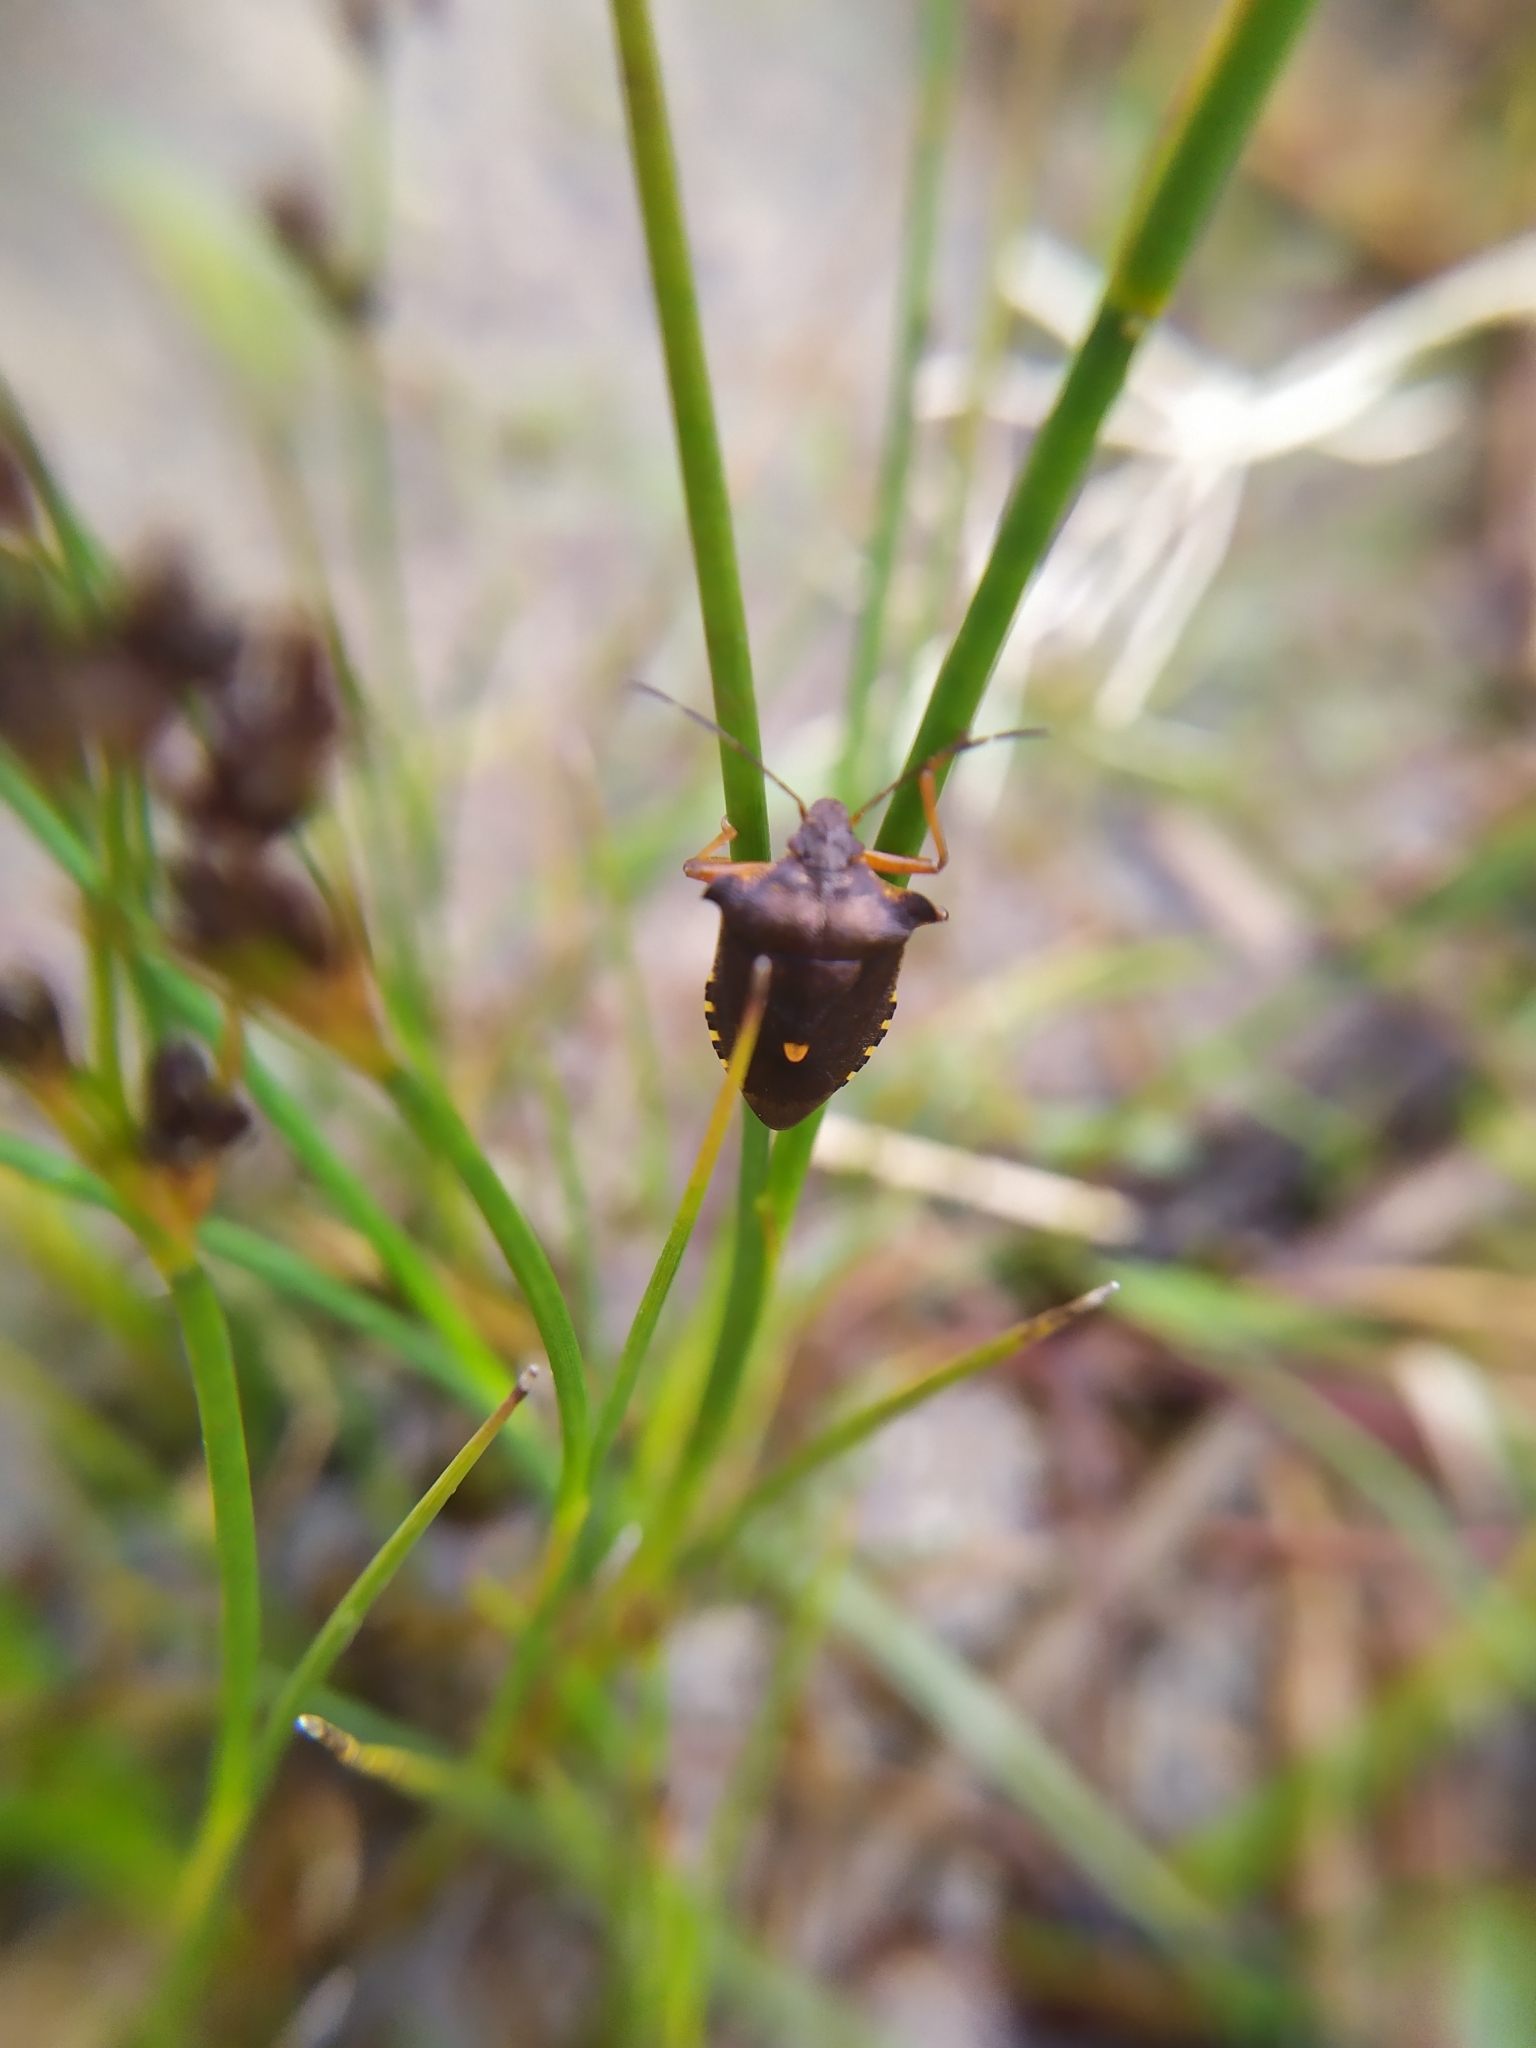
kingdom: Animalia
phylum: Arthropoda
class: Insecta
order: Hemiptera
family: Pentatomidae
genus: Pentatoma
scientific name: Pentatoma rufipes
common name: Forest bug
